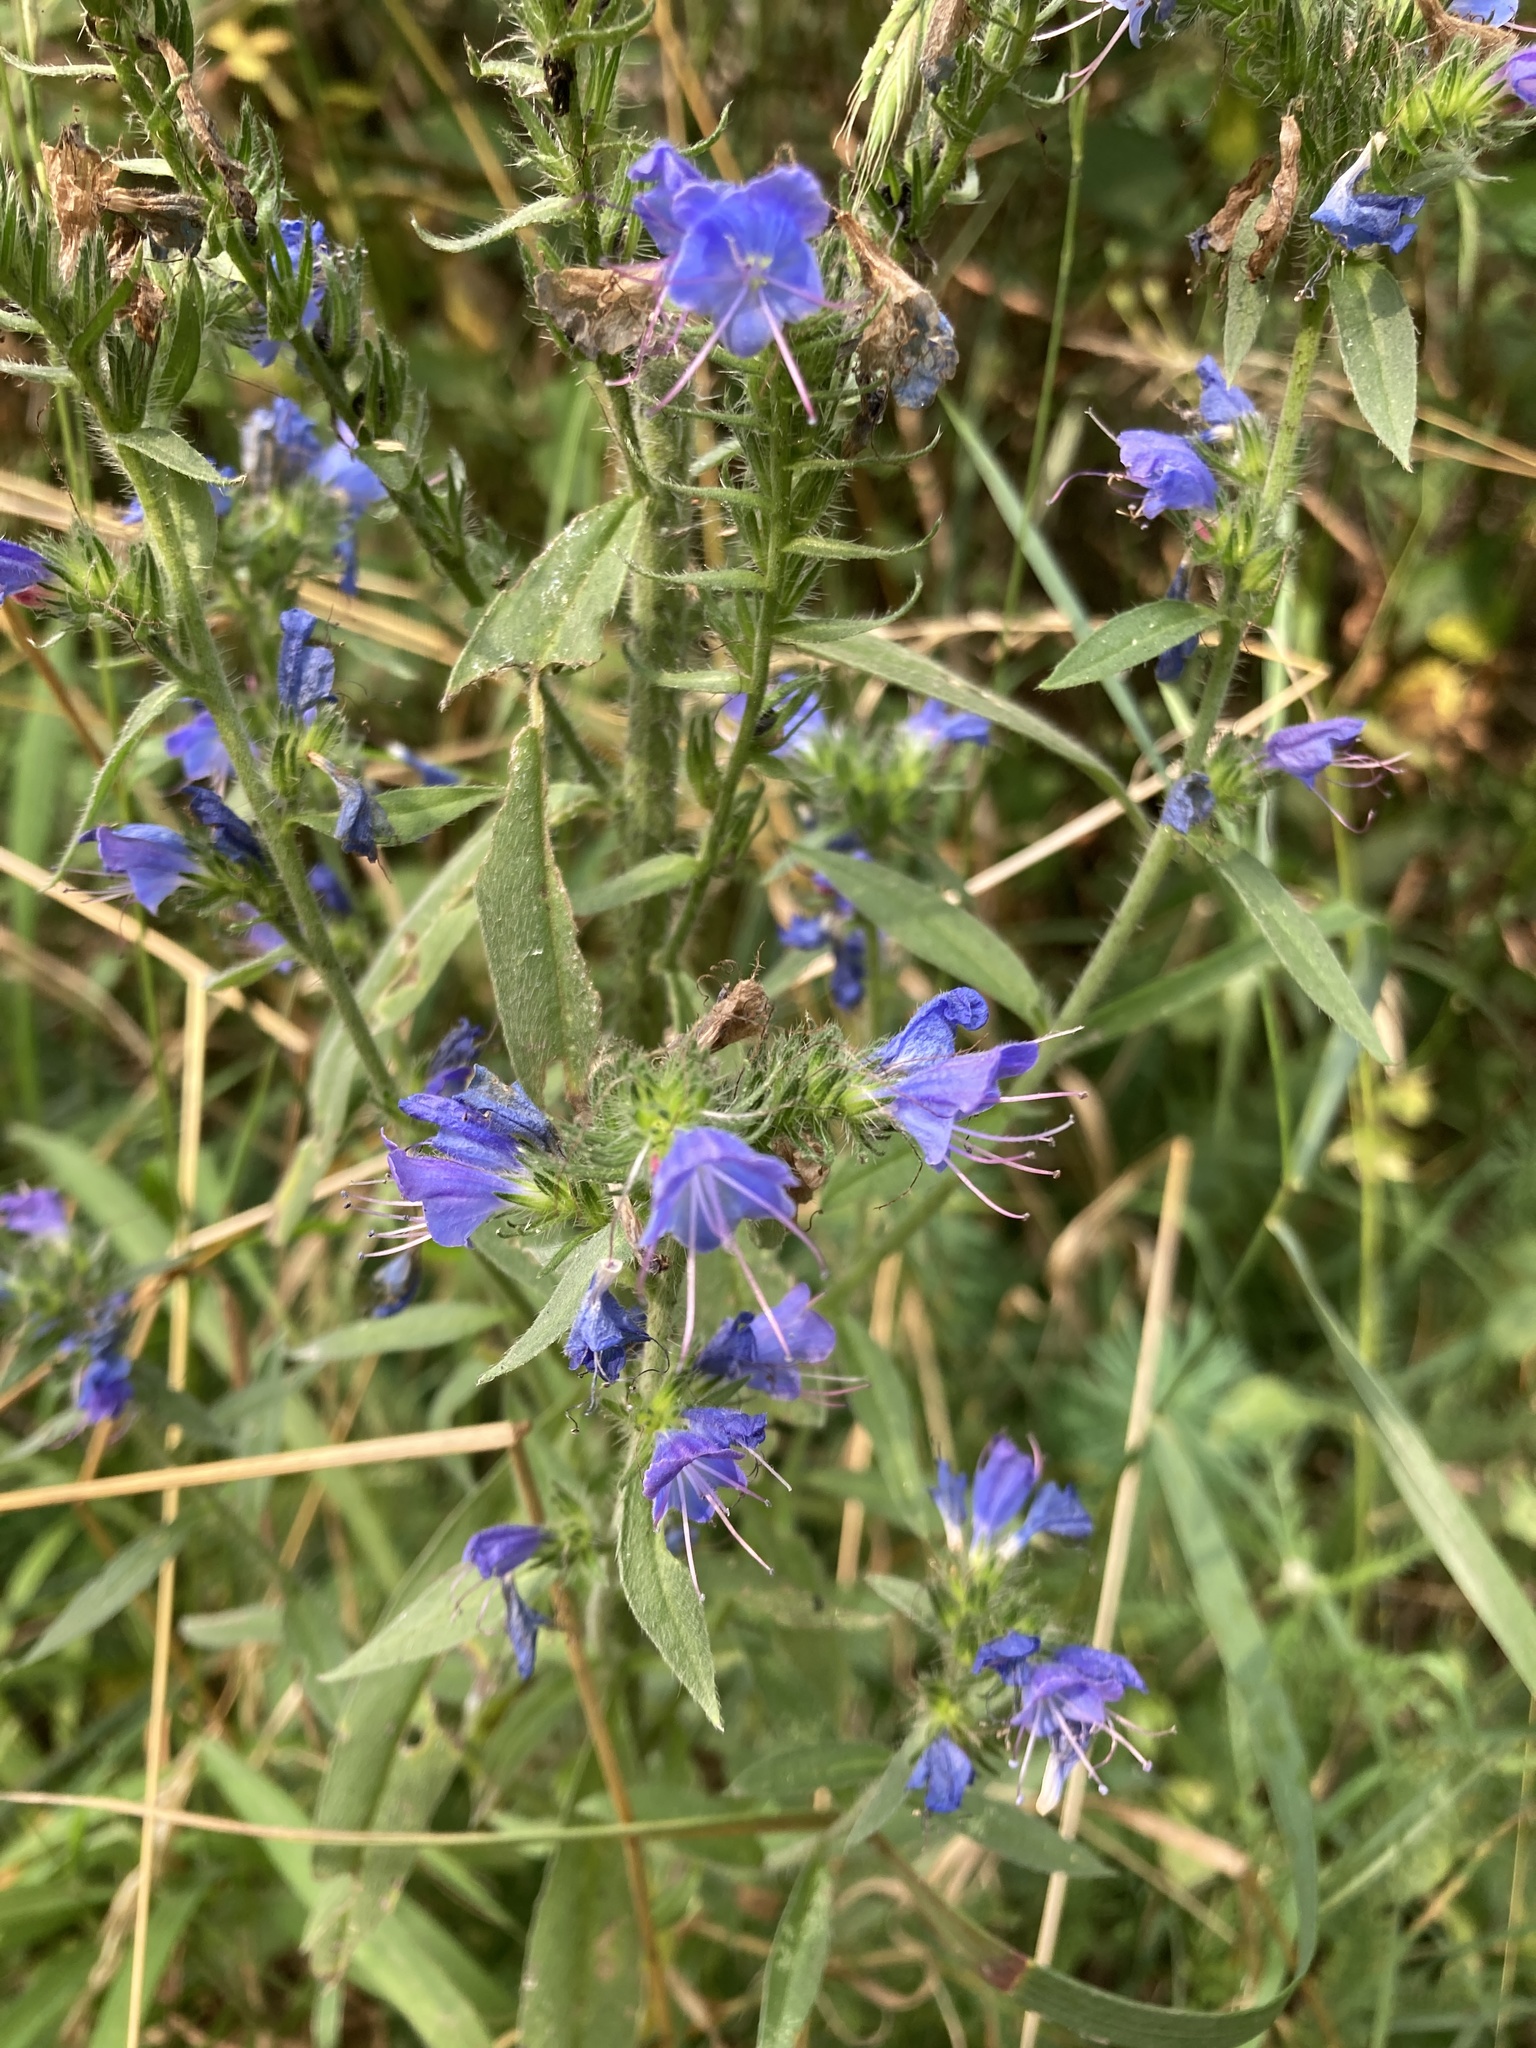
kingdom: Plantae
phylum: Tracheophyta
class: Magnoliopsida
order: Boraginales
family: Boraginaceae
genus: Echium
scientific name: Echium vulgare
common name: Common viper's bugloss
